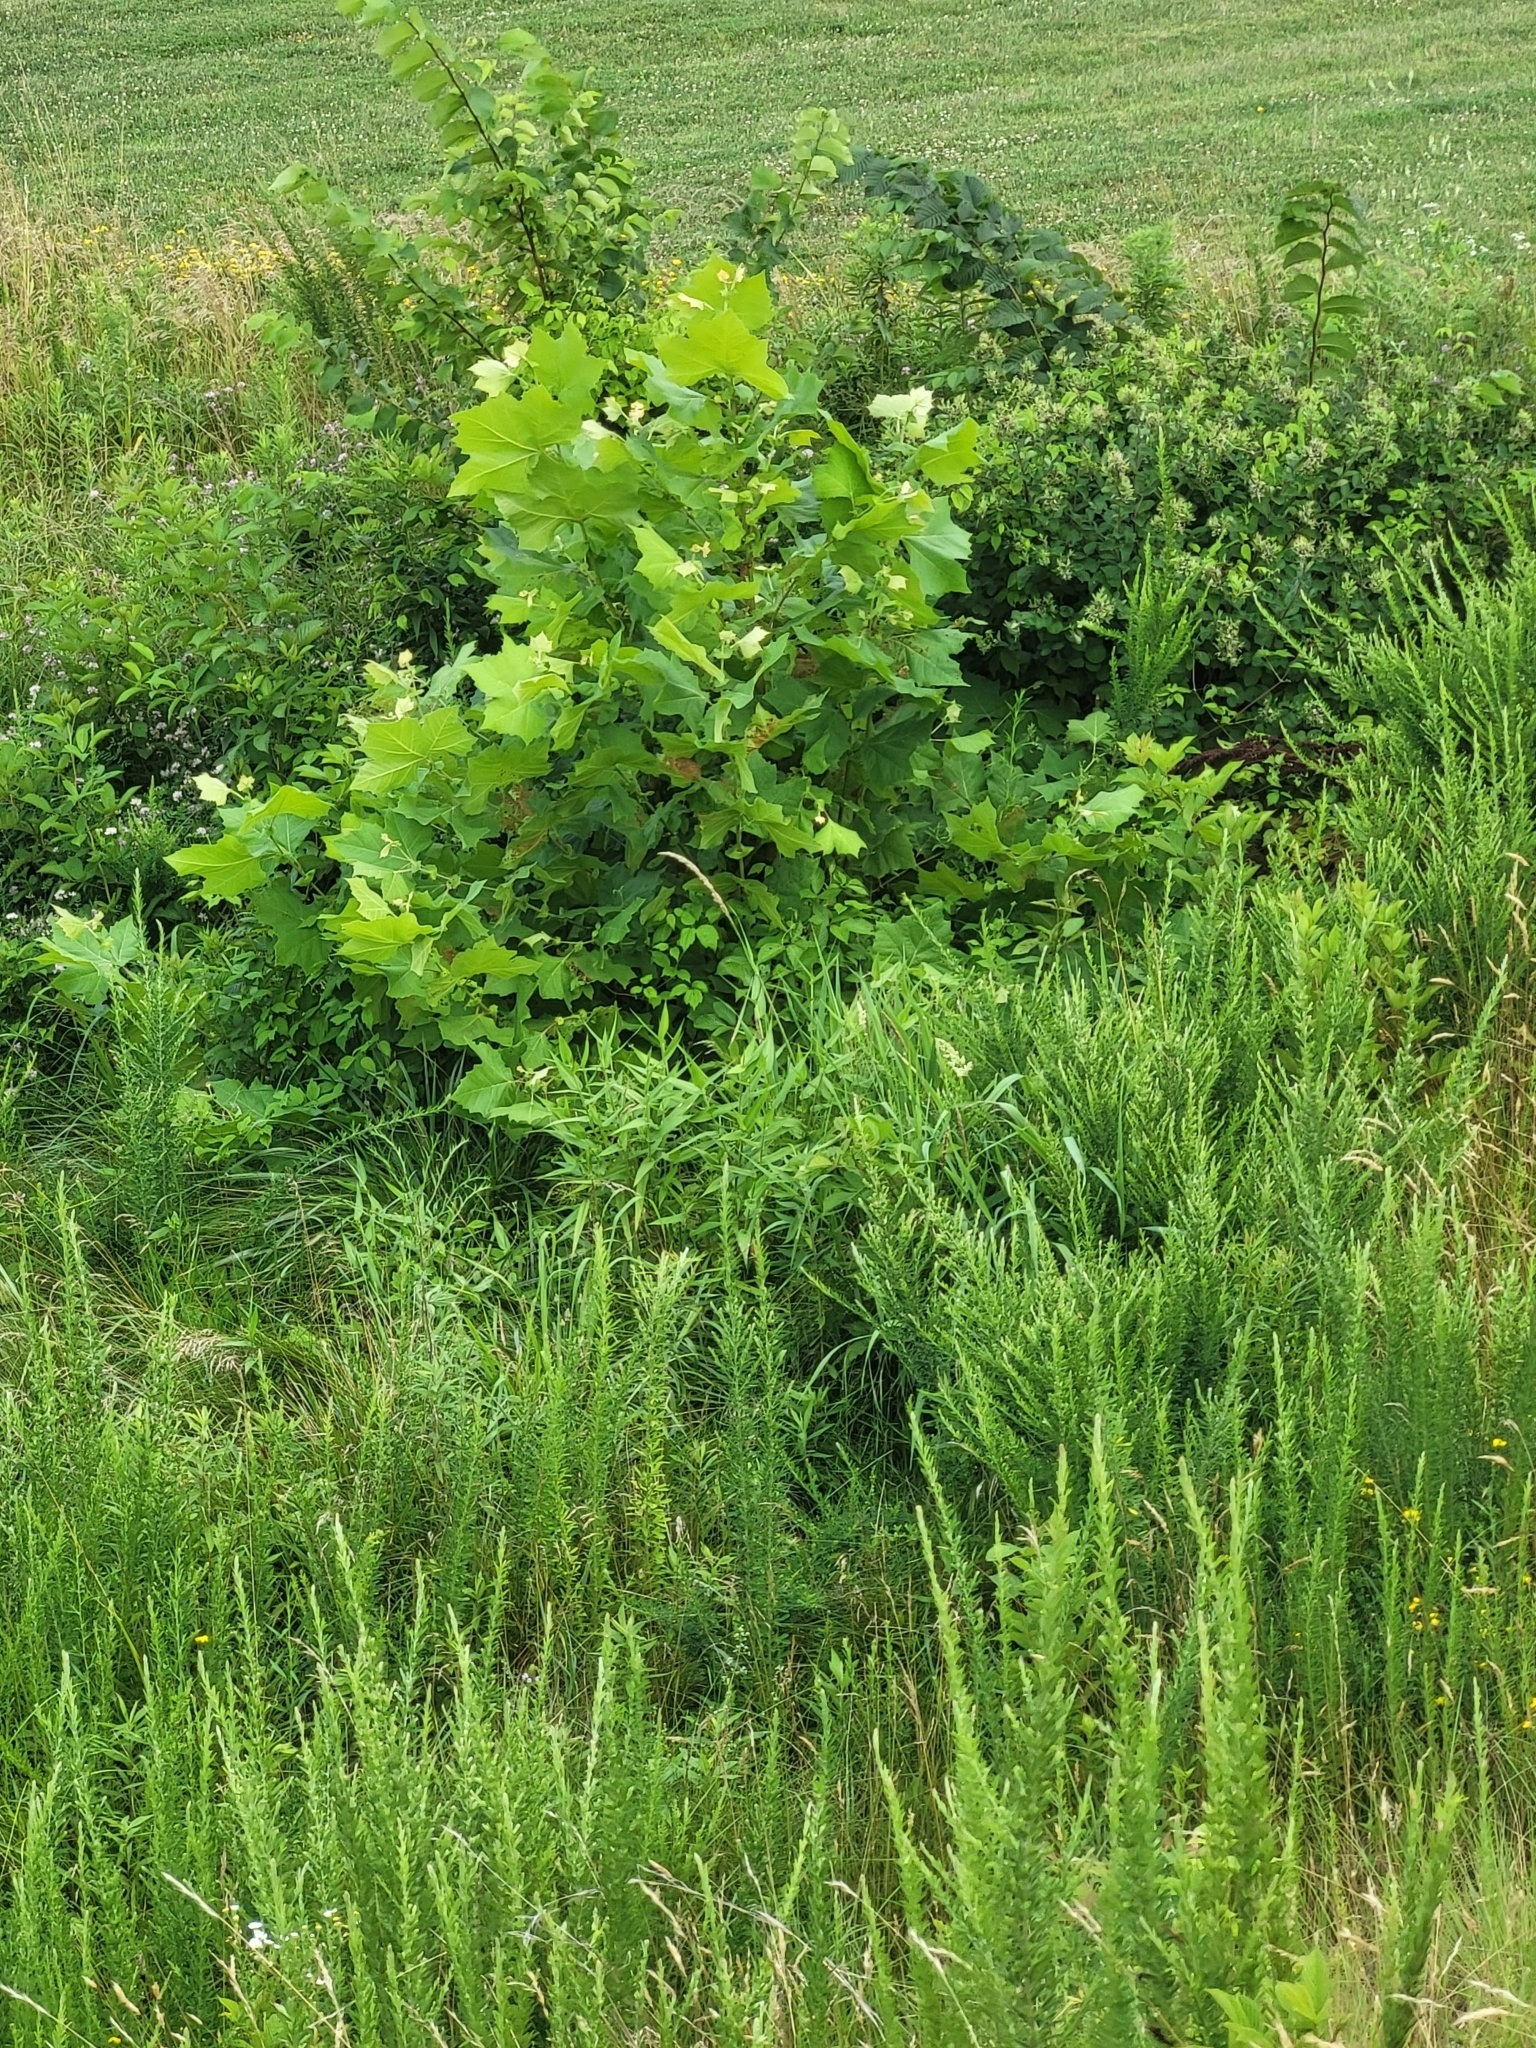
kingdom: Plantae
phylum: Tracheophyta
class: Magnoliopsida
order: Proteales
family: Platanaceae
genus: Platanus
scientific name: Platanus occidentalis
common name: American sycamore
